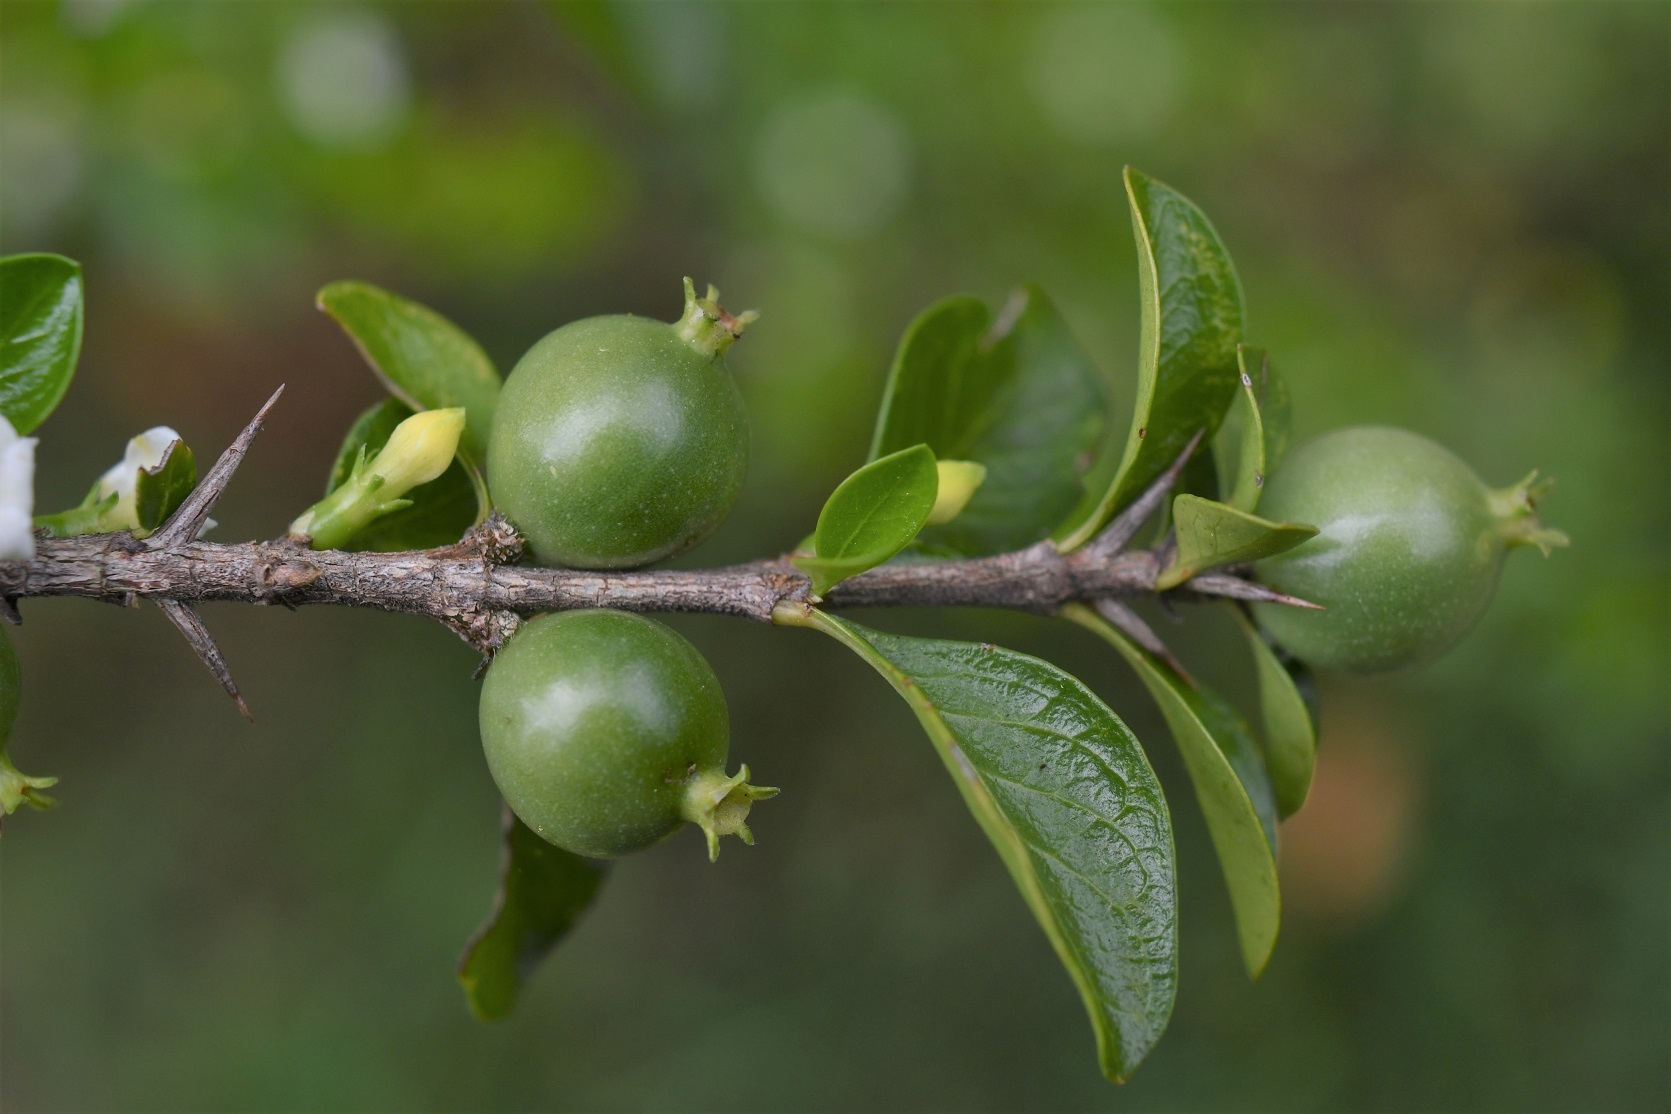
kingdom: Plantae
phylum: Tracheophyta
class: Magnoliopsida
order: Gentianales
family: Rubiaceae
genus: Randia
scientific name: Randia chiapensis
